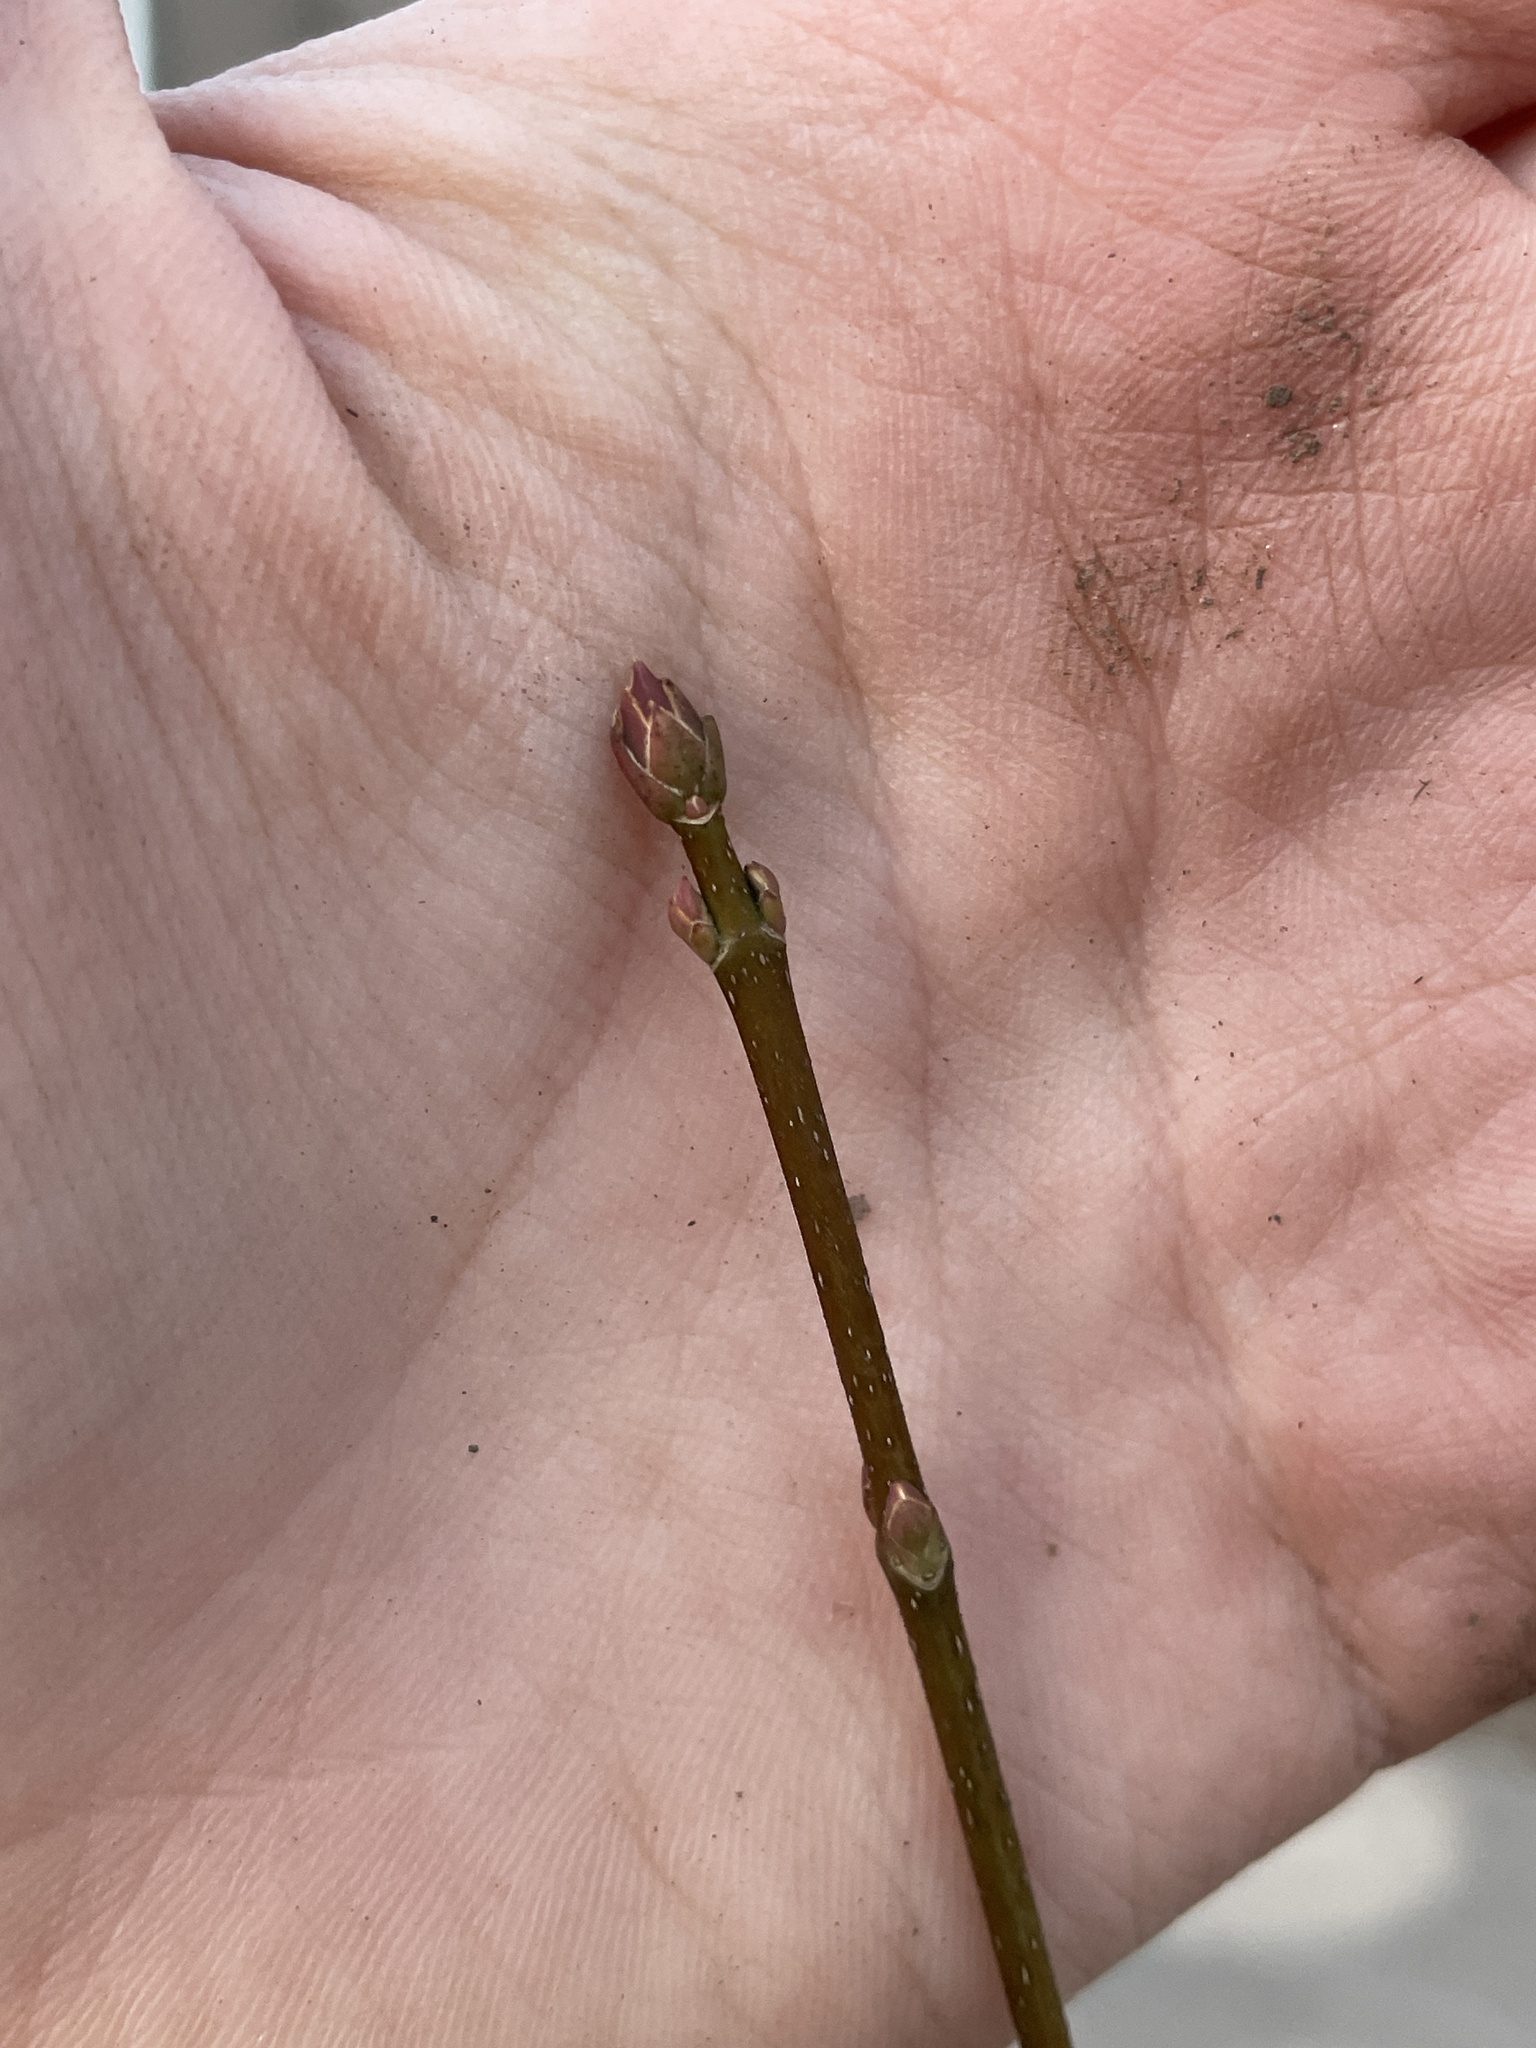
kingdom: Plantae
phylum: Tracheophyta
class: Magnoliopsida
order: Sapindales
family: Sapindaceae
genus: Acer
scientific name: Acer platanoides
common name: Norway maple
